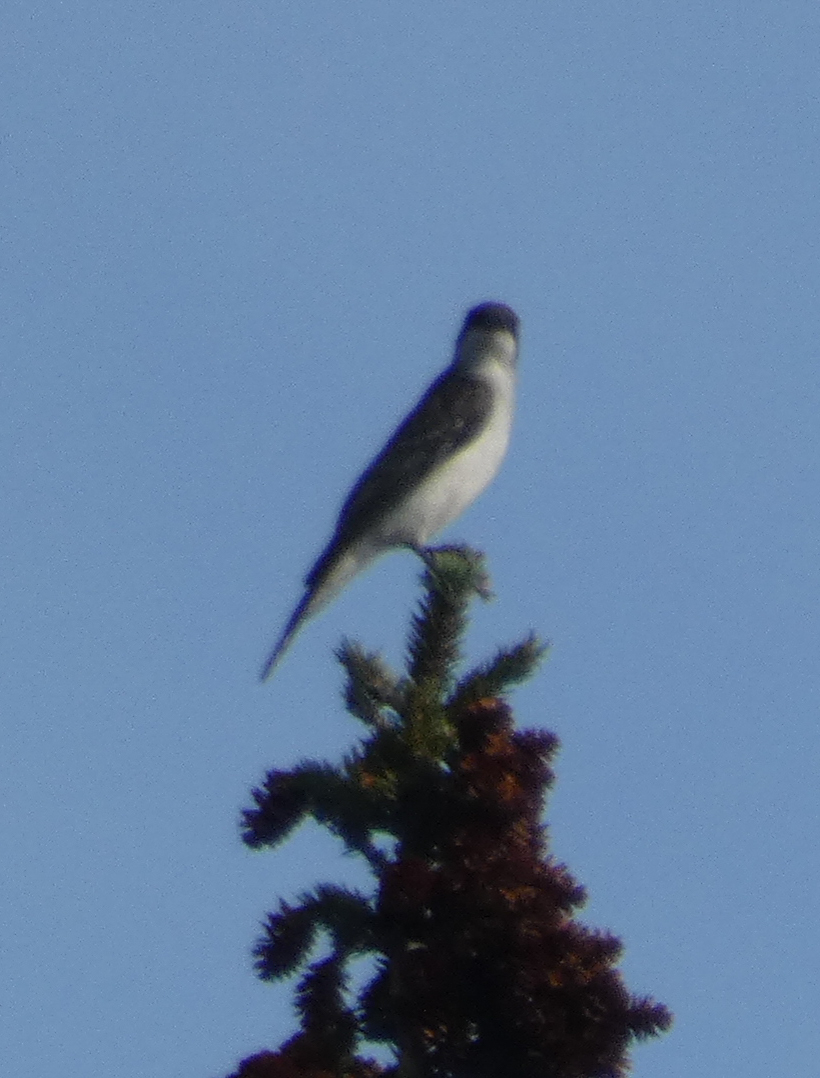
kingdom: Animalia
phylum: Chordata
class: Aves
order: Passeriformes
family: Tyrannidae
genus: Tyrannus
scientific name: Tyrannus tyrannus
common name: Eastern kingbird
